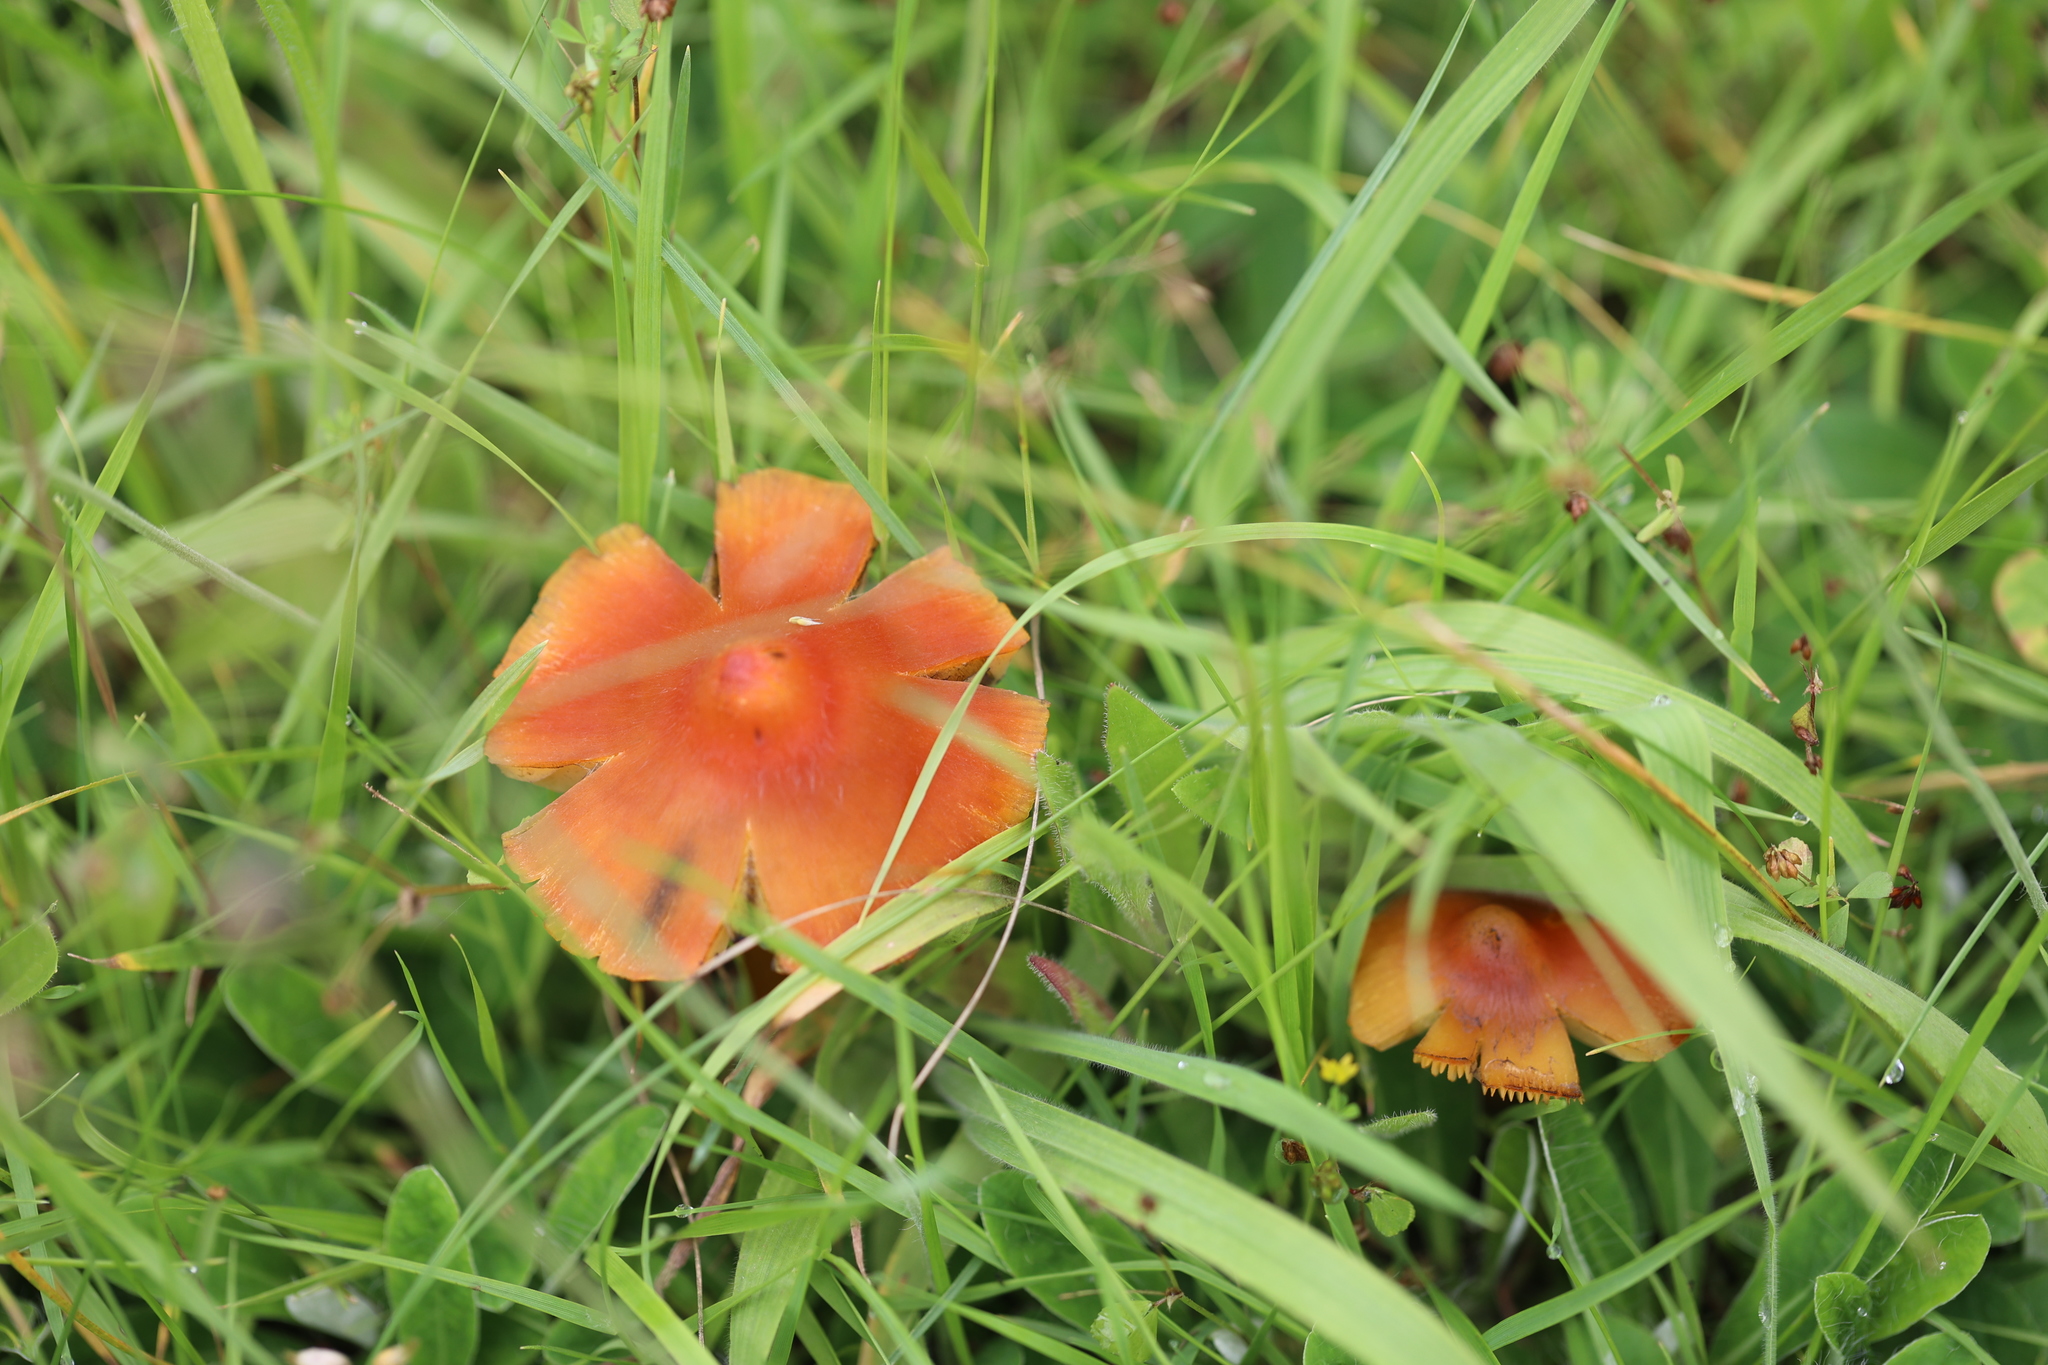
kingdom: Fungi
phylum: Basidiomycota
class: Agaricomycetes
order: Agaricales
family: Hygrophoraceae
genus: Hygrocybe
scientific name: Hygrocybe conica
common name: Blackening wax-cap
